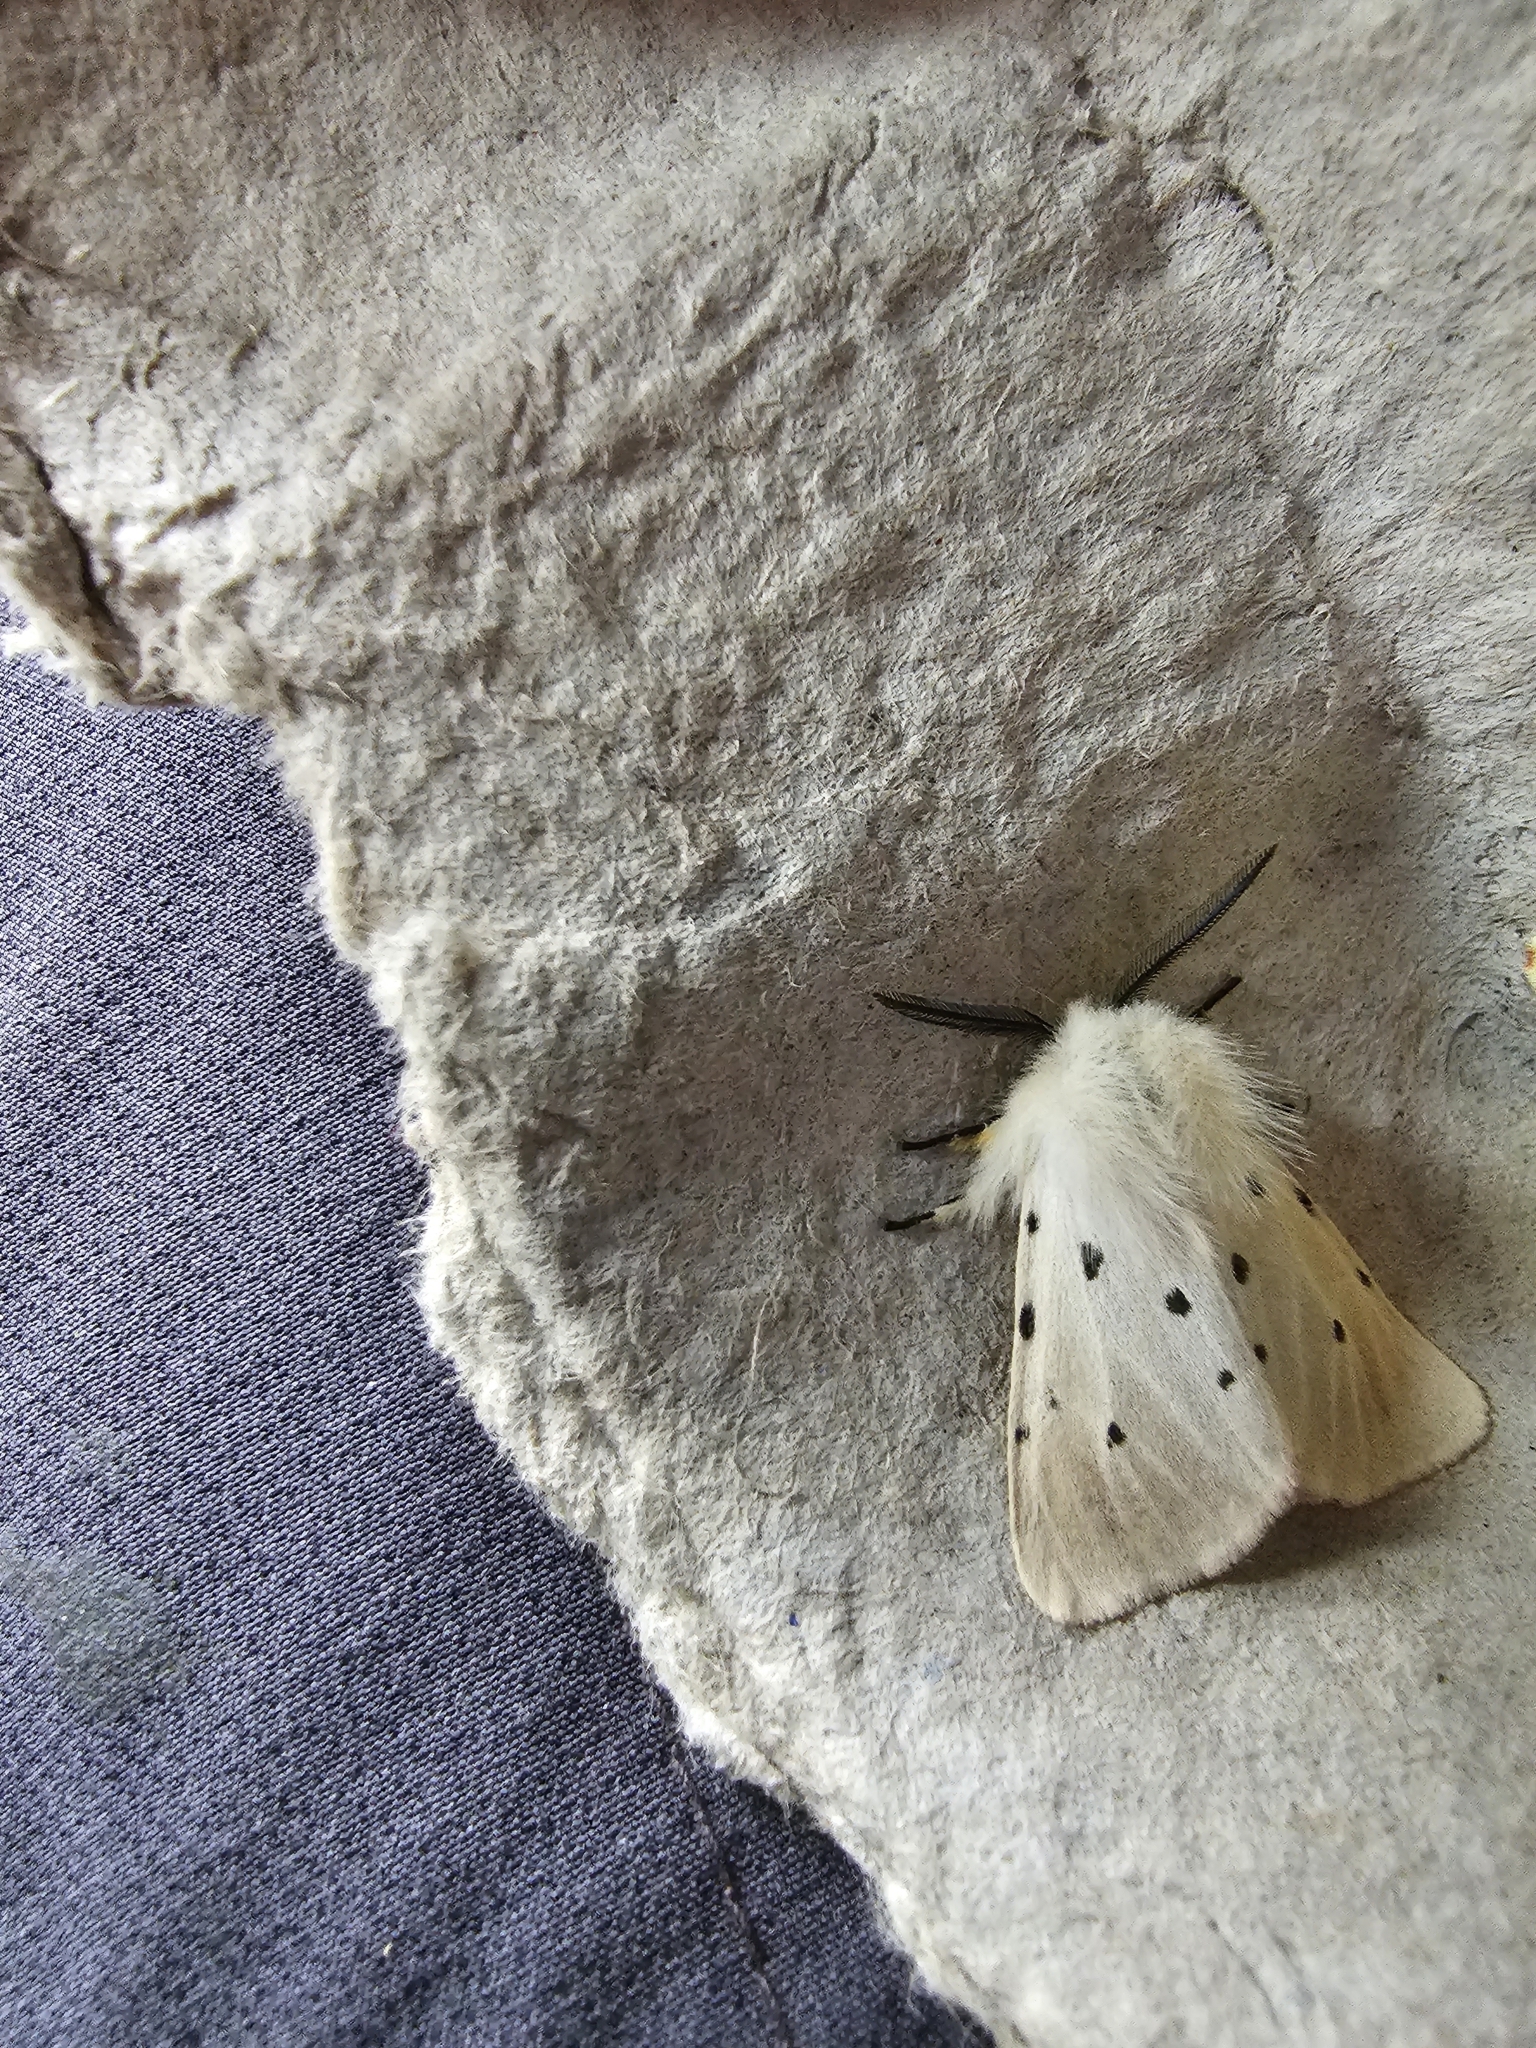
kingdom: Animalia
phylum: Arthropoda
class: Insecta
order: Lepidoptera
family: Erebidae
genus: Diaphora
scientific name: Diaphora mendica
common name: Muslin moth
